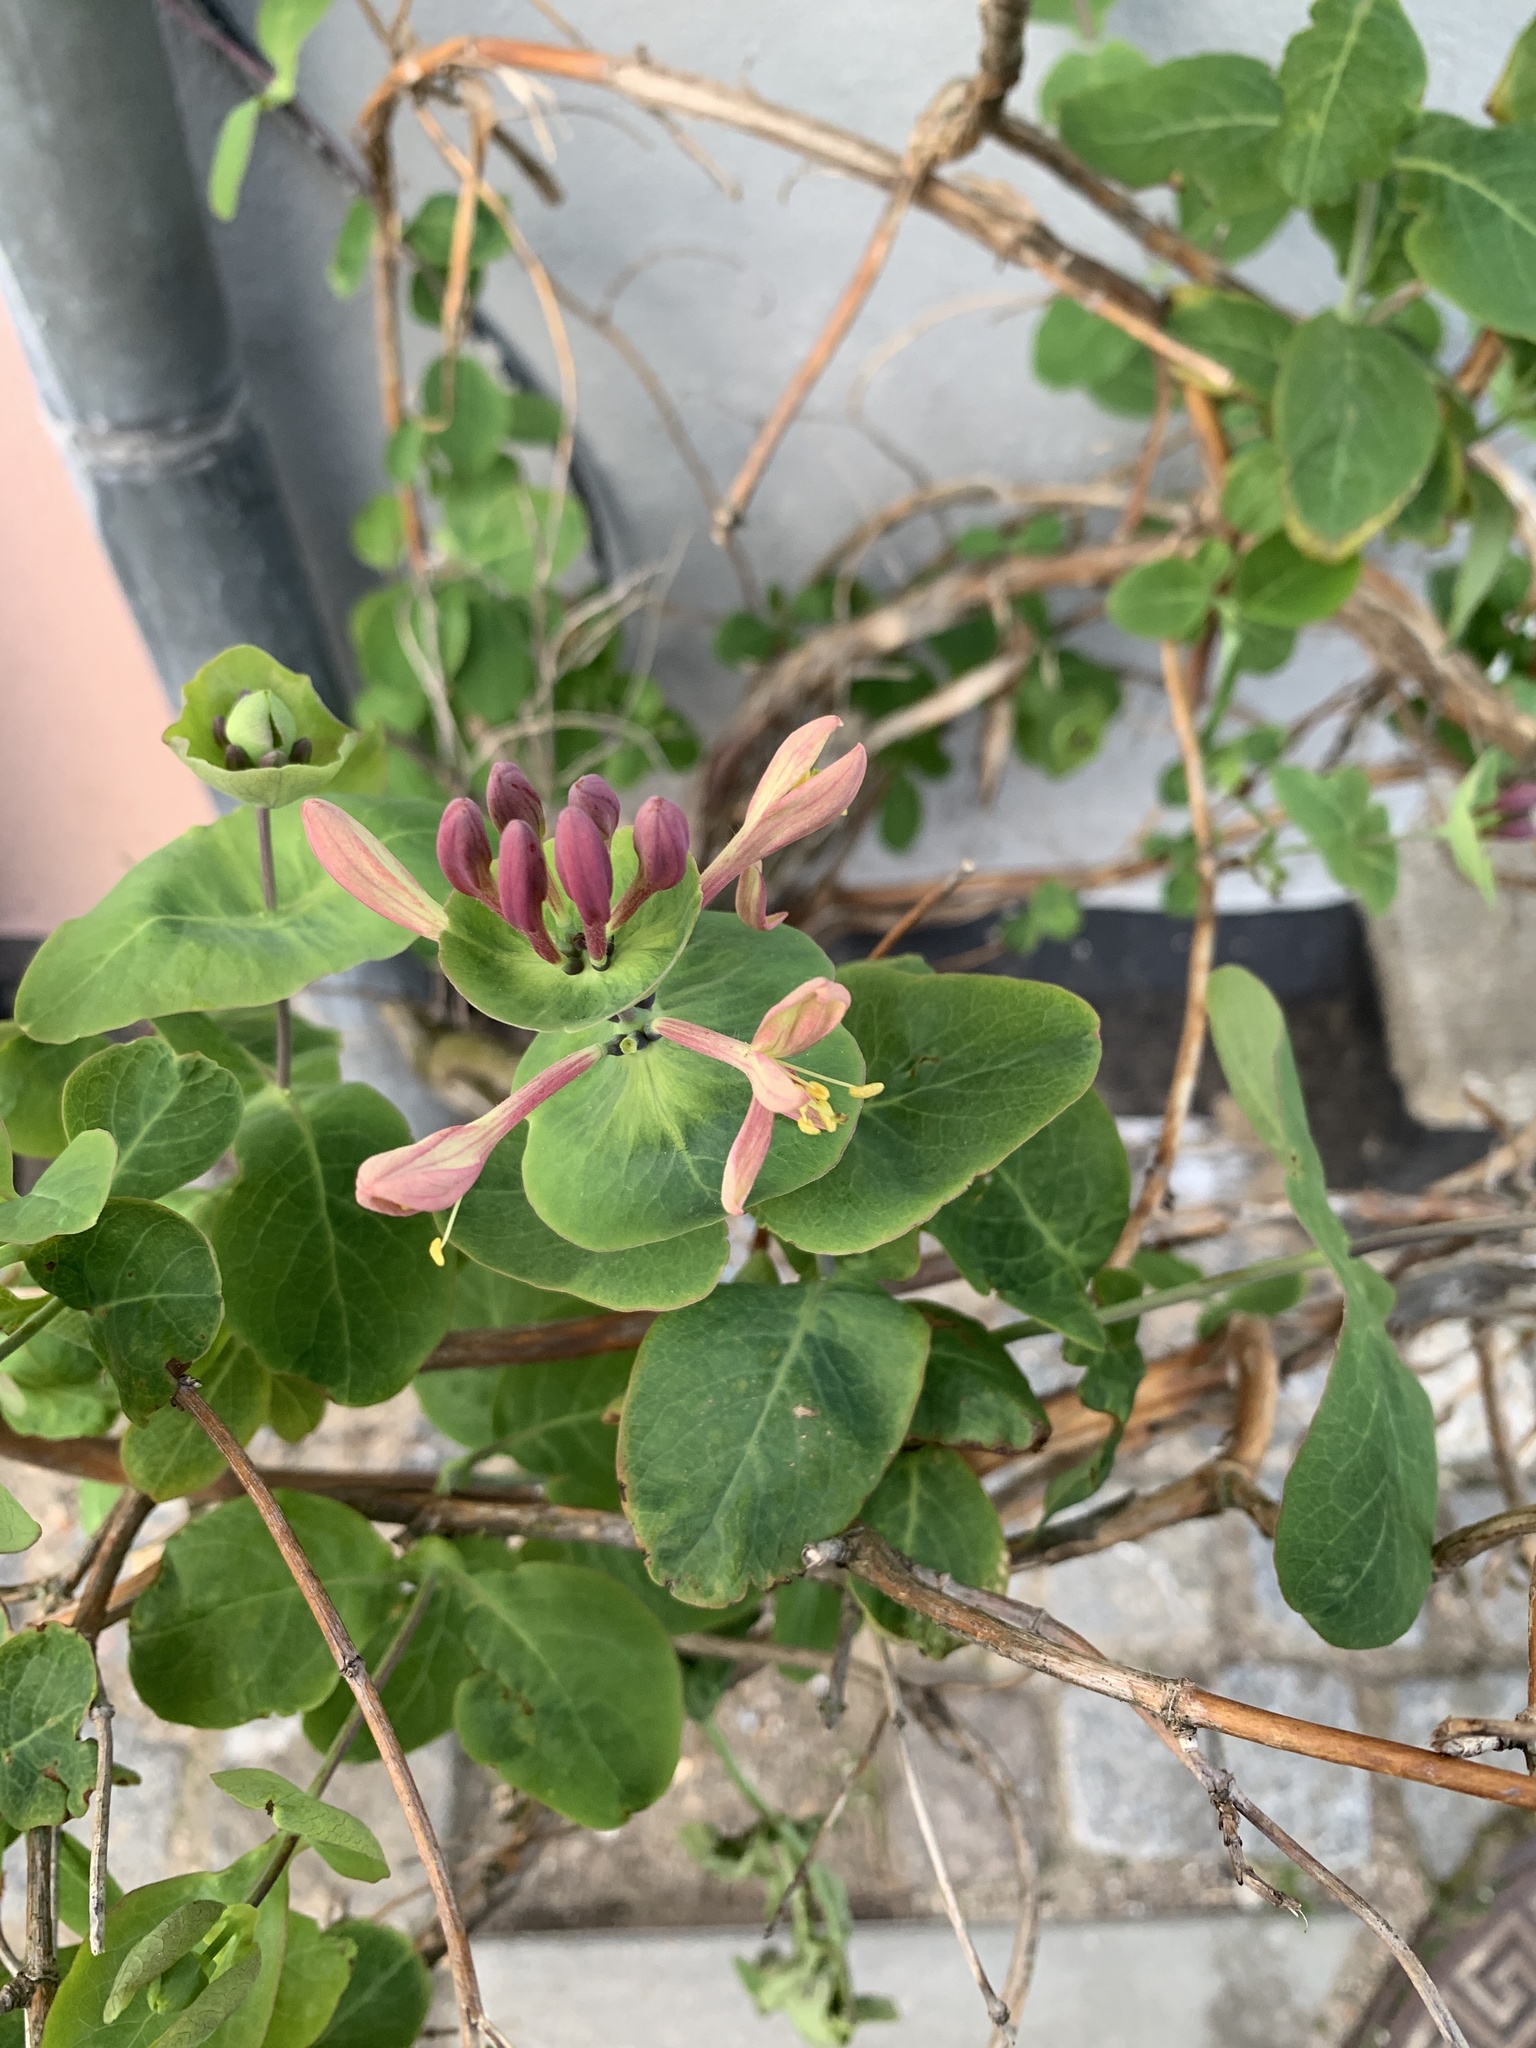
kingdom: Plantae
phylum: Tracheophyta
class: Magnoliopsida
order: Dipsacales
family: Caprifoliaceae
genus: Lonicera
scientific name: Lonicera caprifolium
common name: Perfoliate honeysuckle
